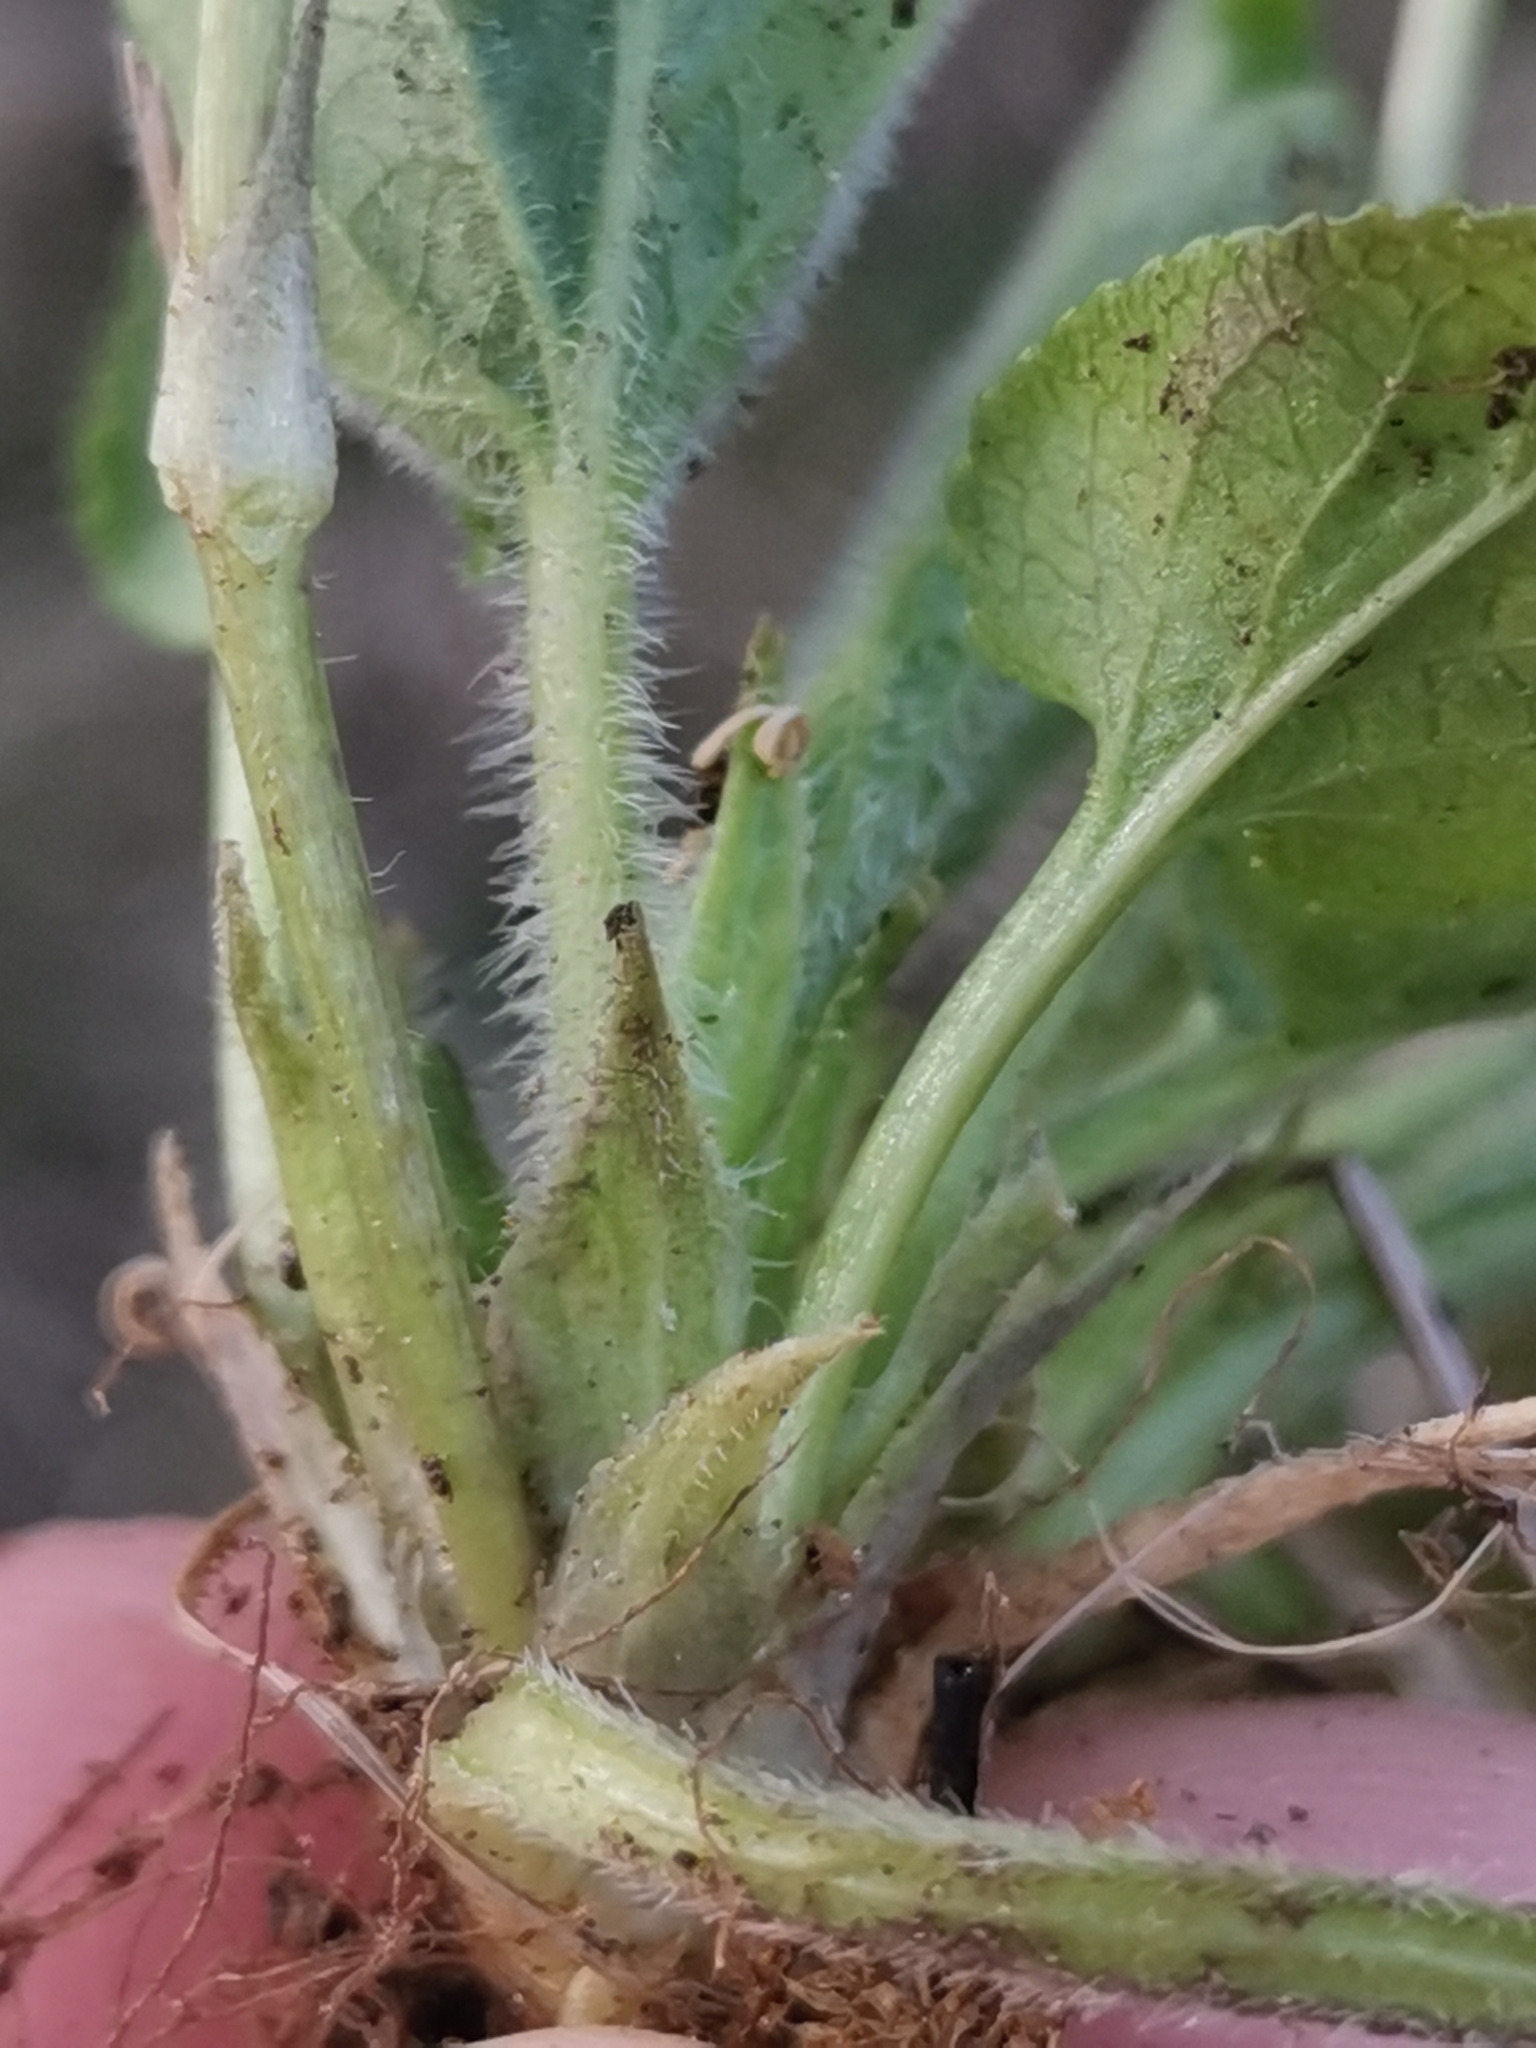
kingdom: Plantae
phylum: Tracheophyta
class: Magnoliopsida
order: Malpighiales
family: Violaceae
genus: Viola
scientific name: Viola collina
